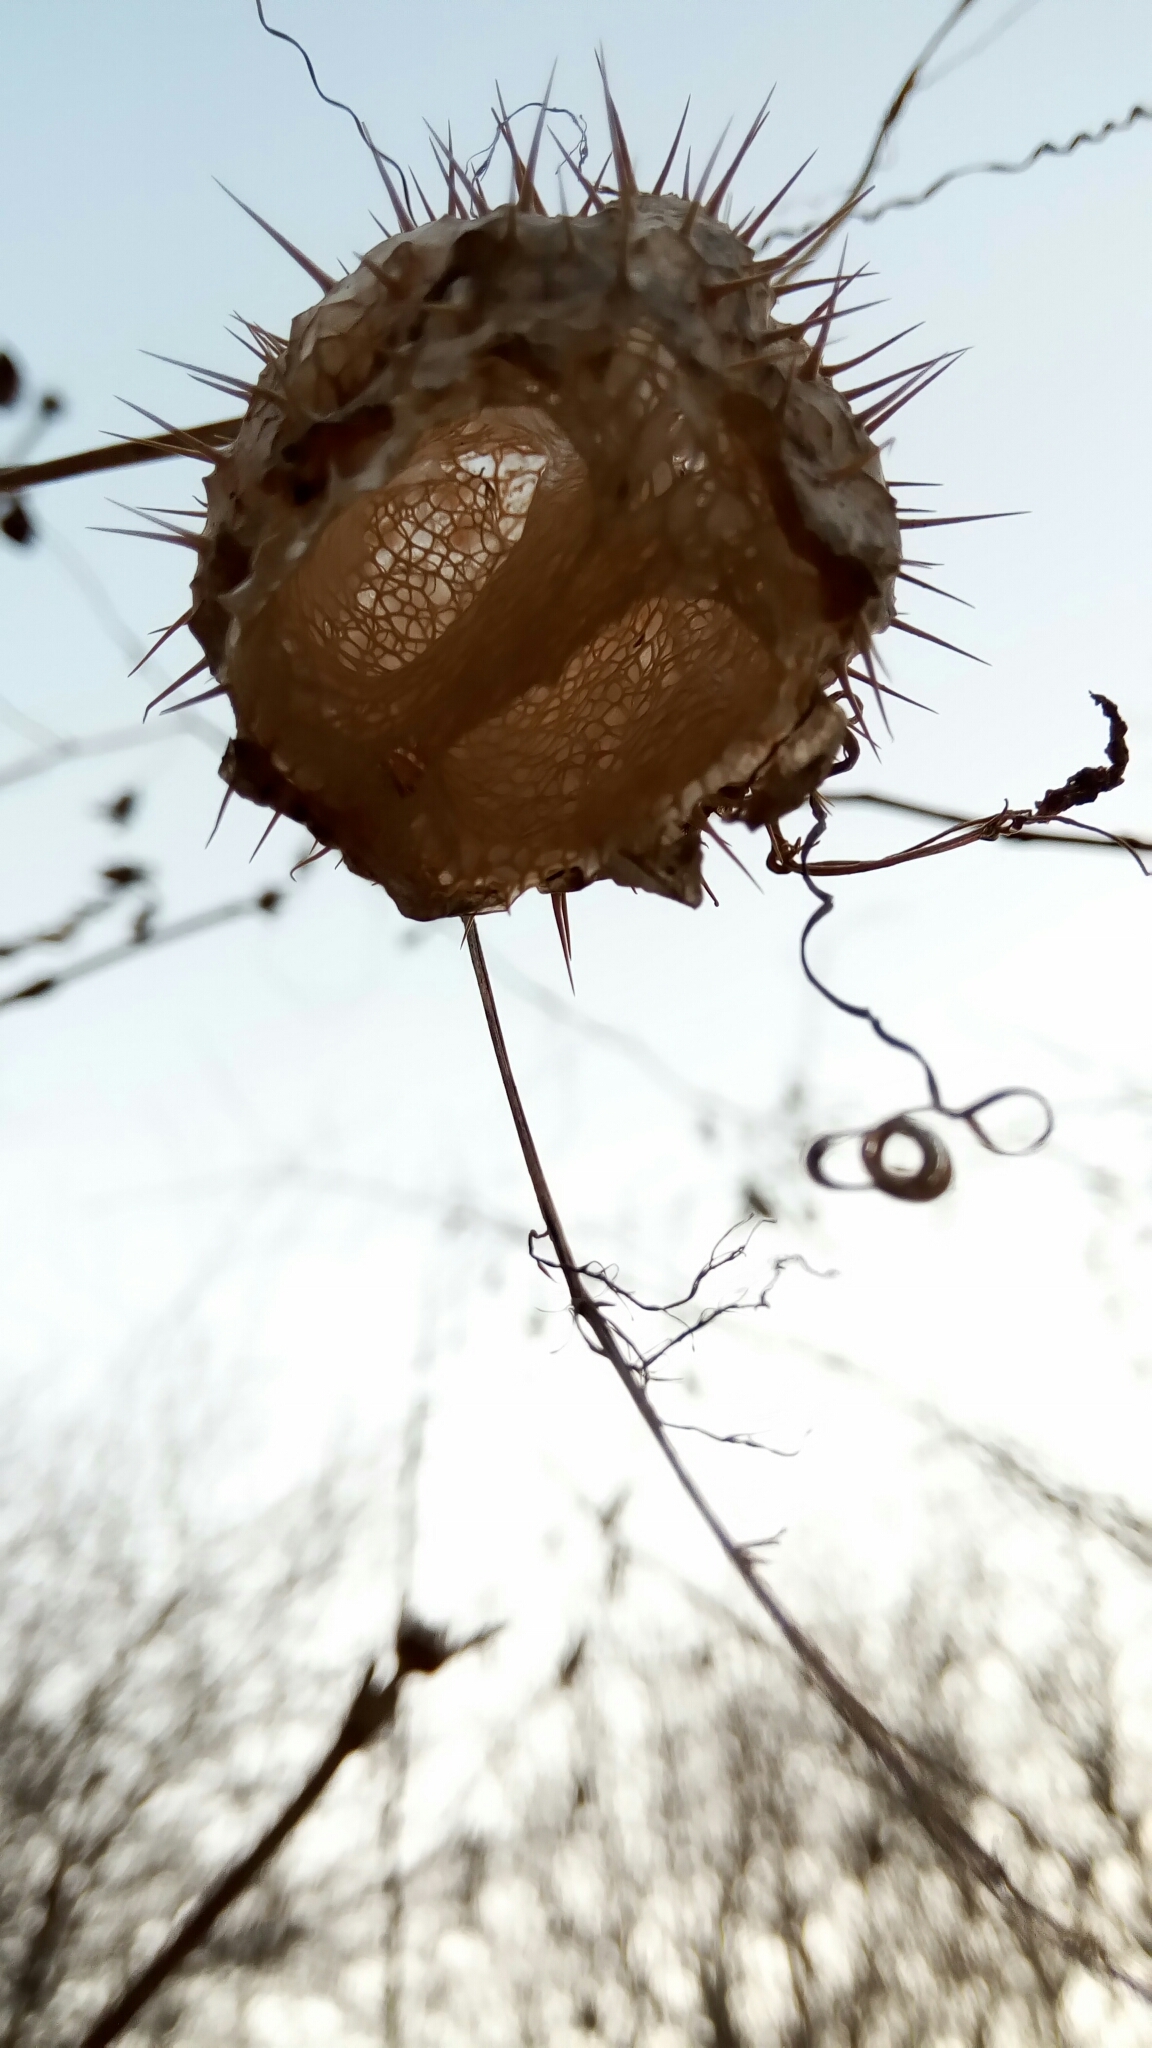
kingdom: Plantae
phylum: Tracheophyta
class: Magnoliopsida
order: Cucurbitales
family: Cucurbitaceae
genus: Echinocystis
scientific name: Echinocystis lobata
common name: Wild cucumber
